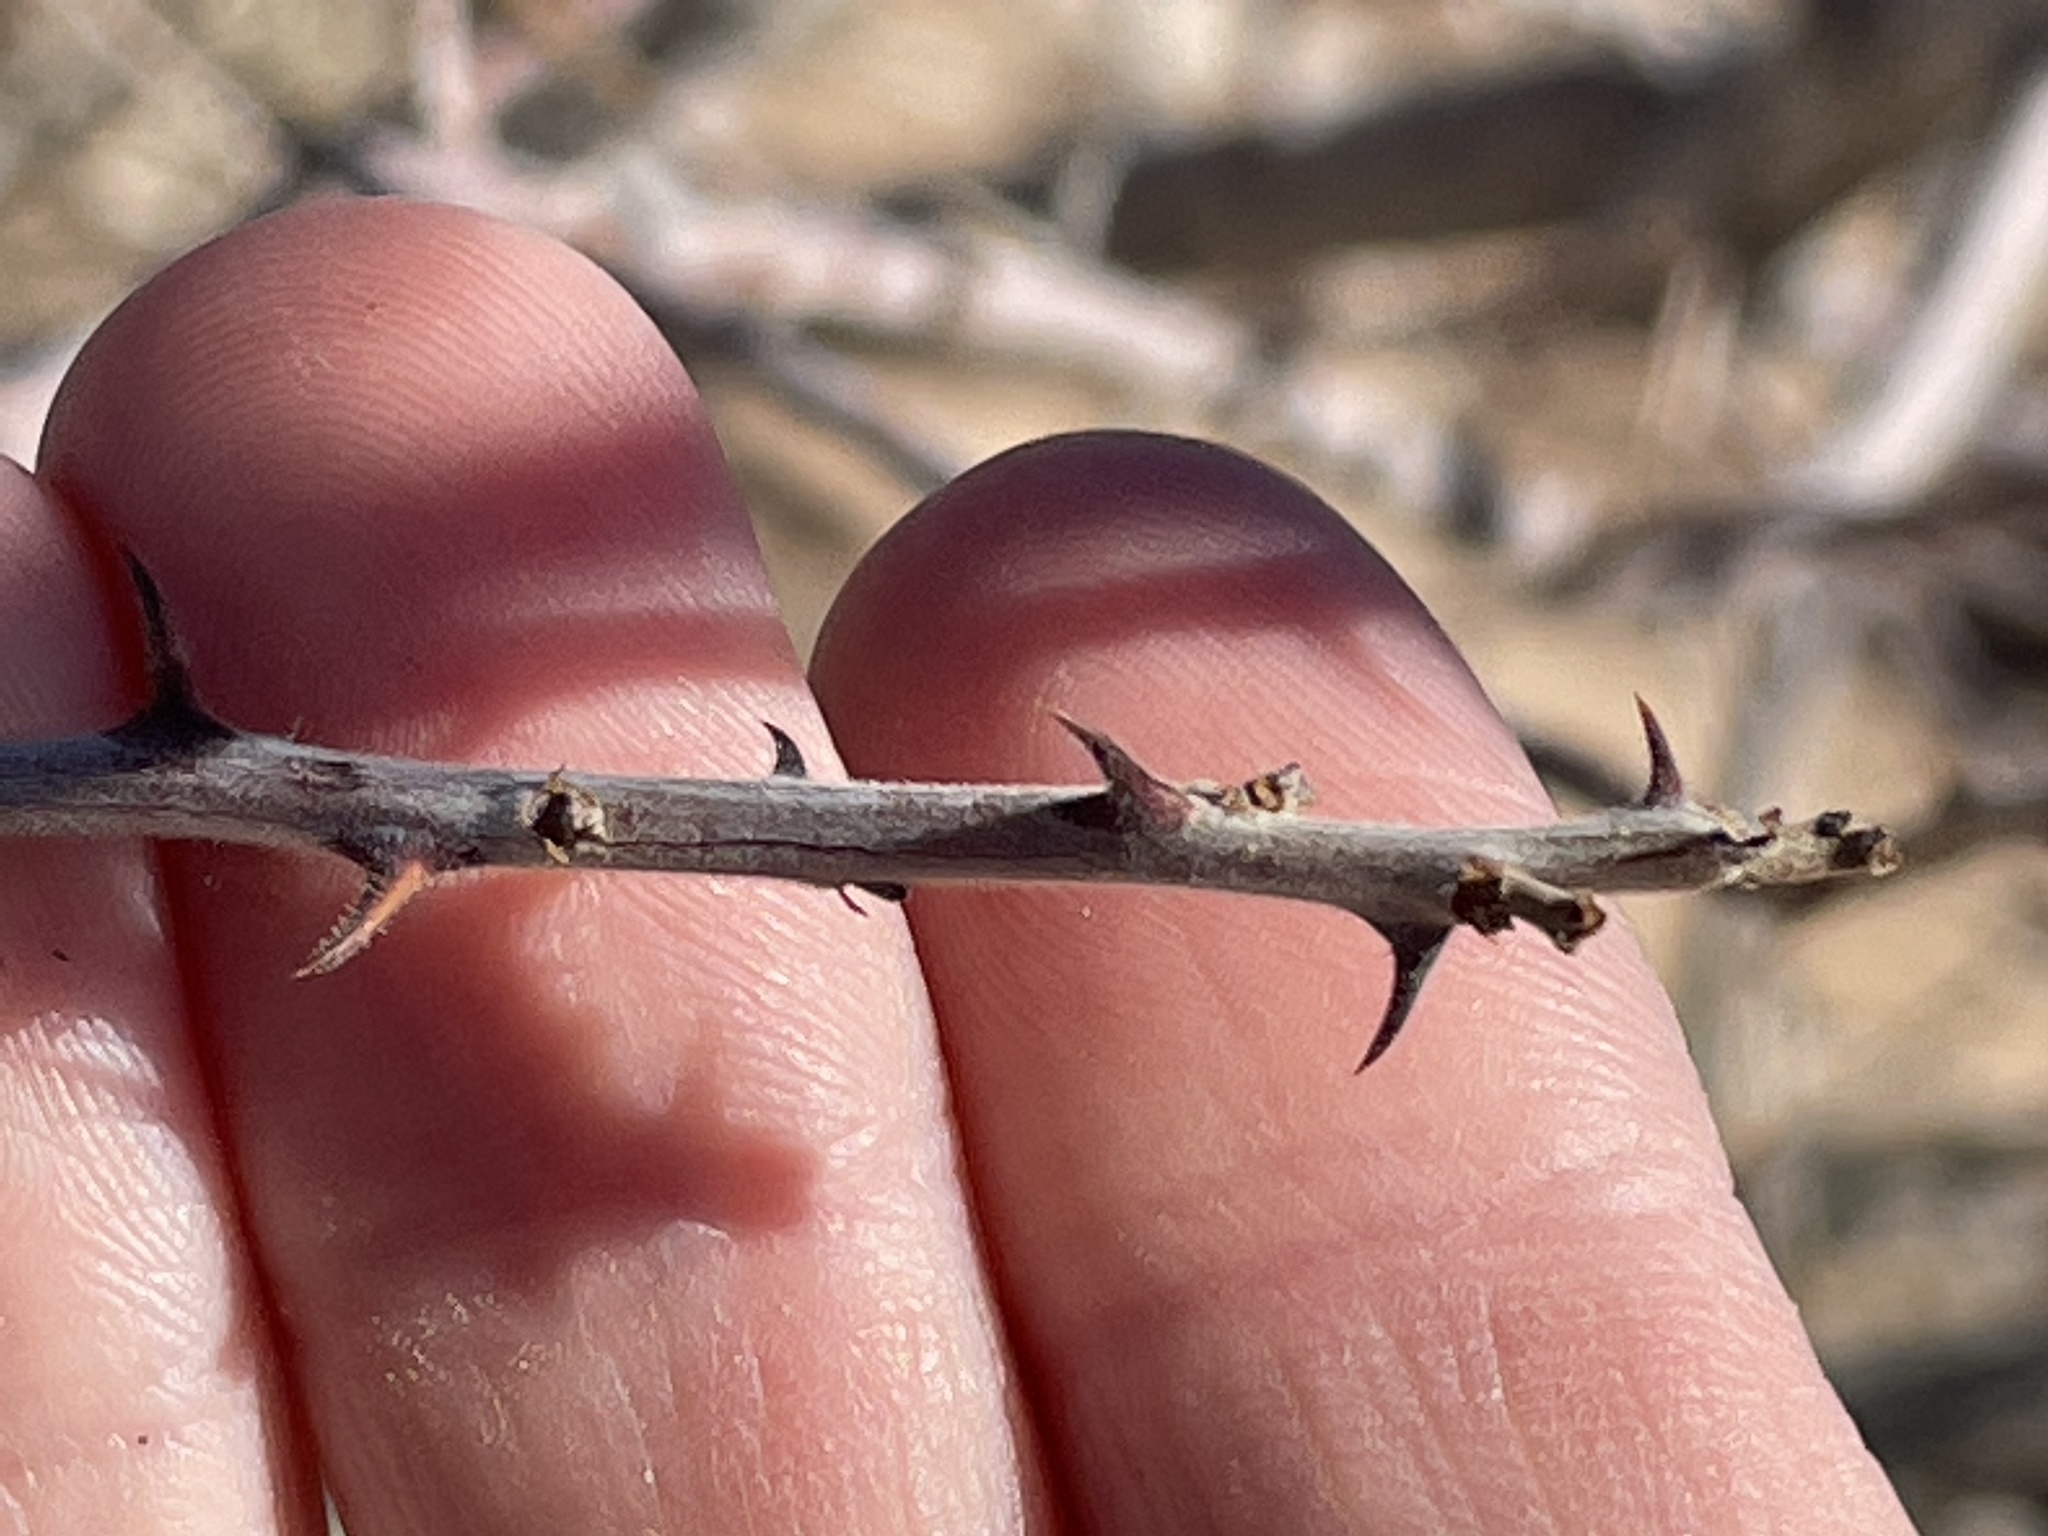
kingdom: Plantae
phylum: Tracheophyta
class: Magnoliopsida
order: Fabales
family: Fabaceae
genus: Senegalia
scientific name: Senegalia greggii
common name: Texas-mimosa
